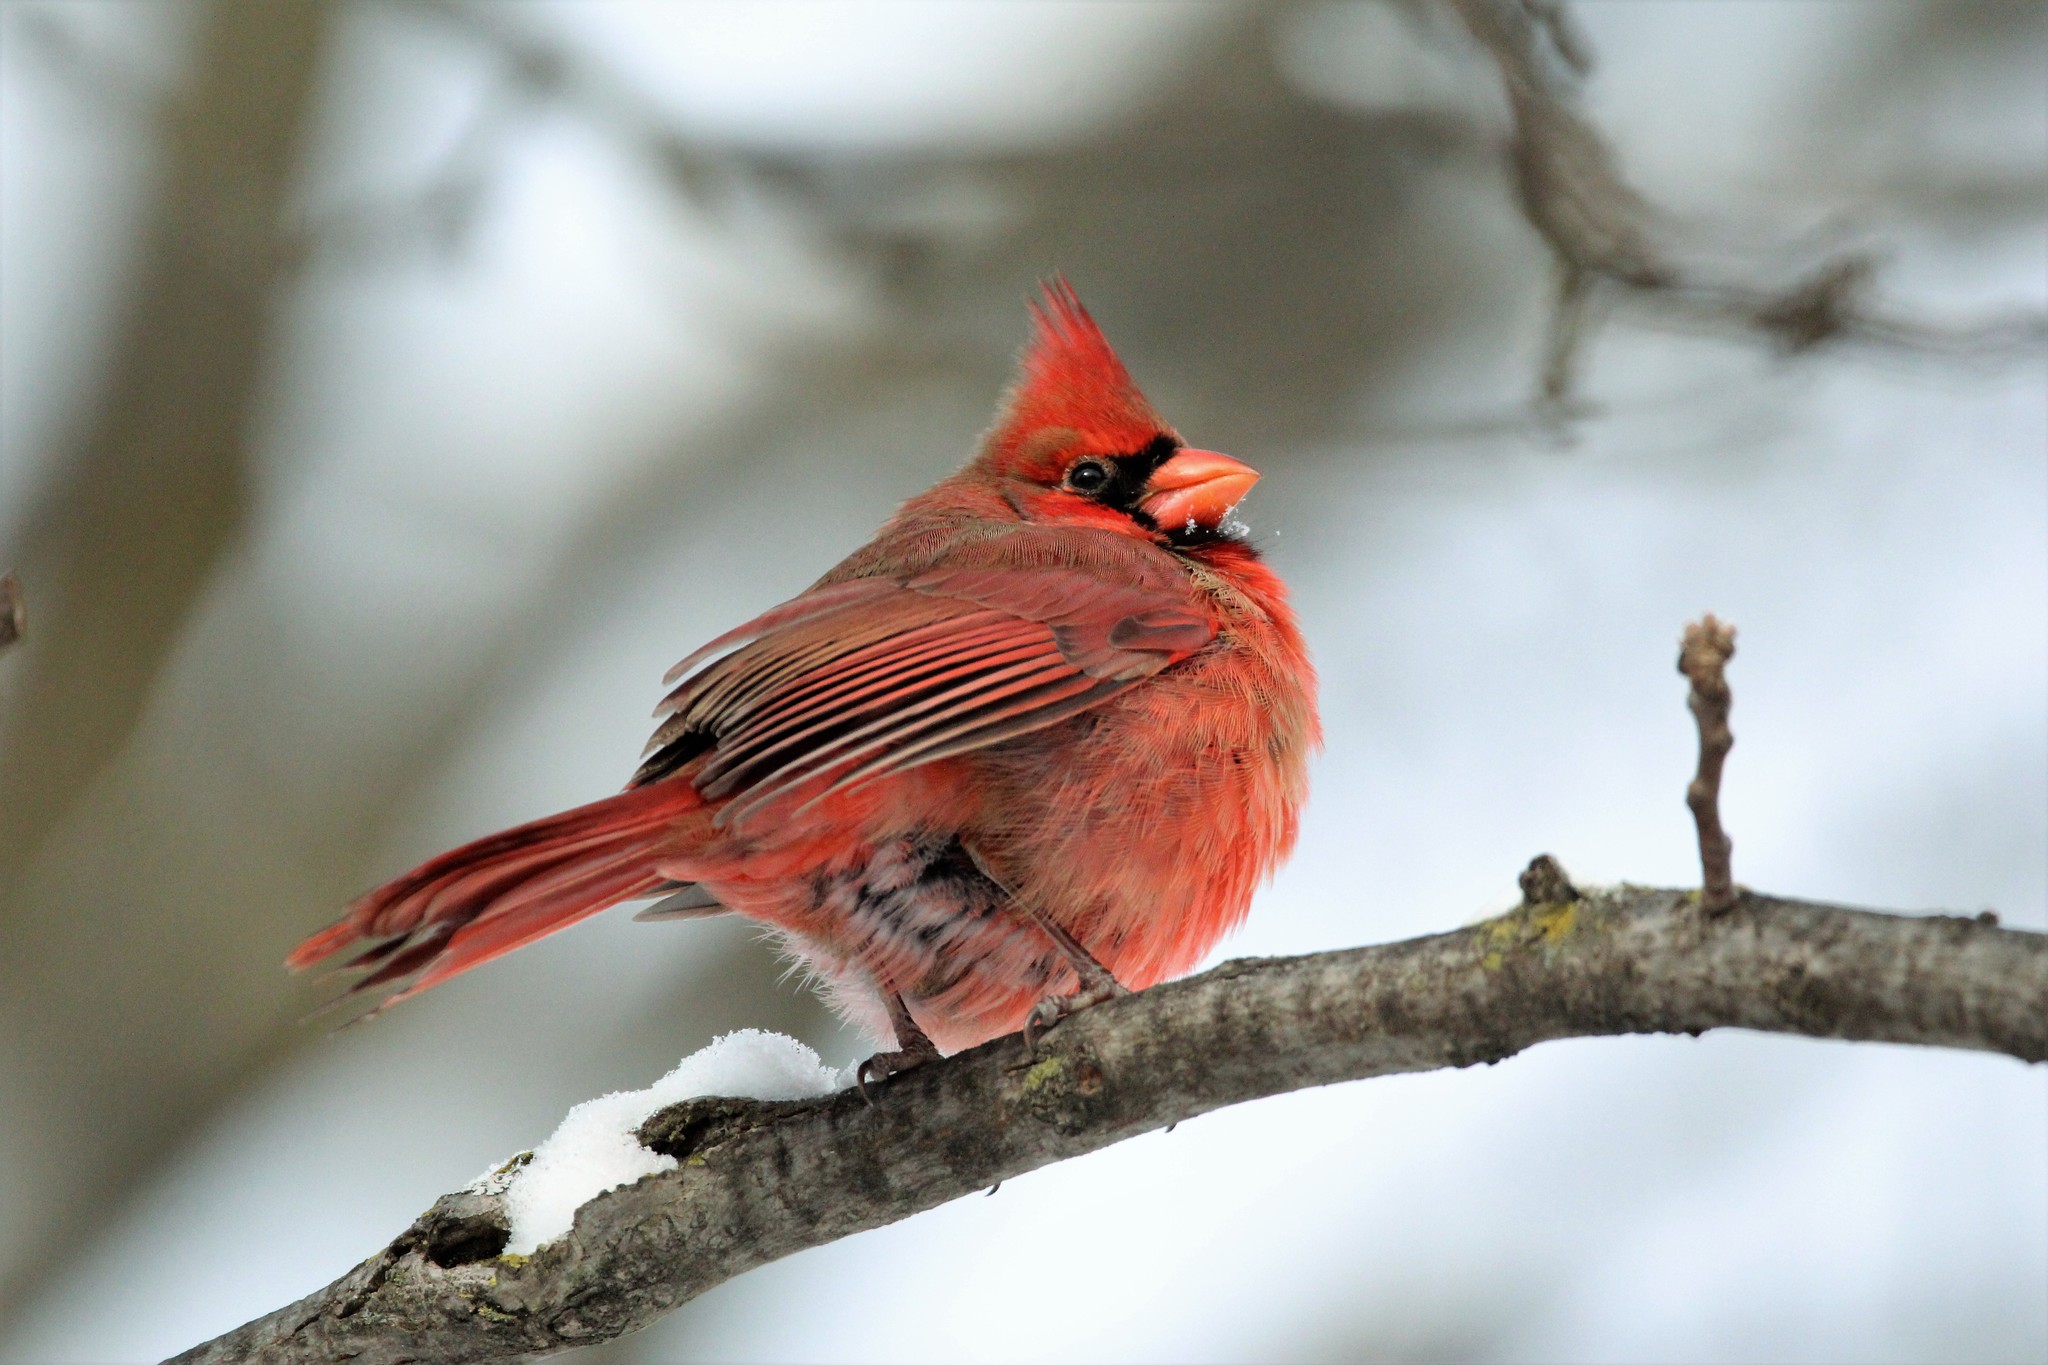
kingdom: Animalia
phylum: Chordata
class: Aves
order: Passeriformes
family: Cardinalidae
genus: Cardinalis
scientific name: Cardinalis cardinalis
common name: Northern cardinal
